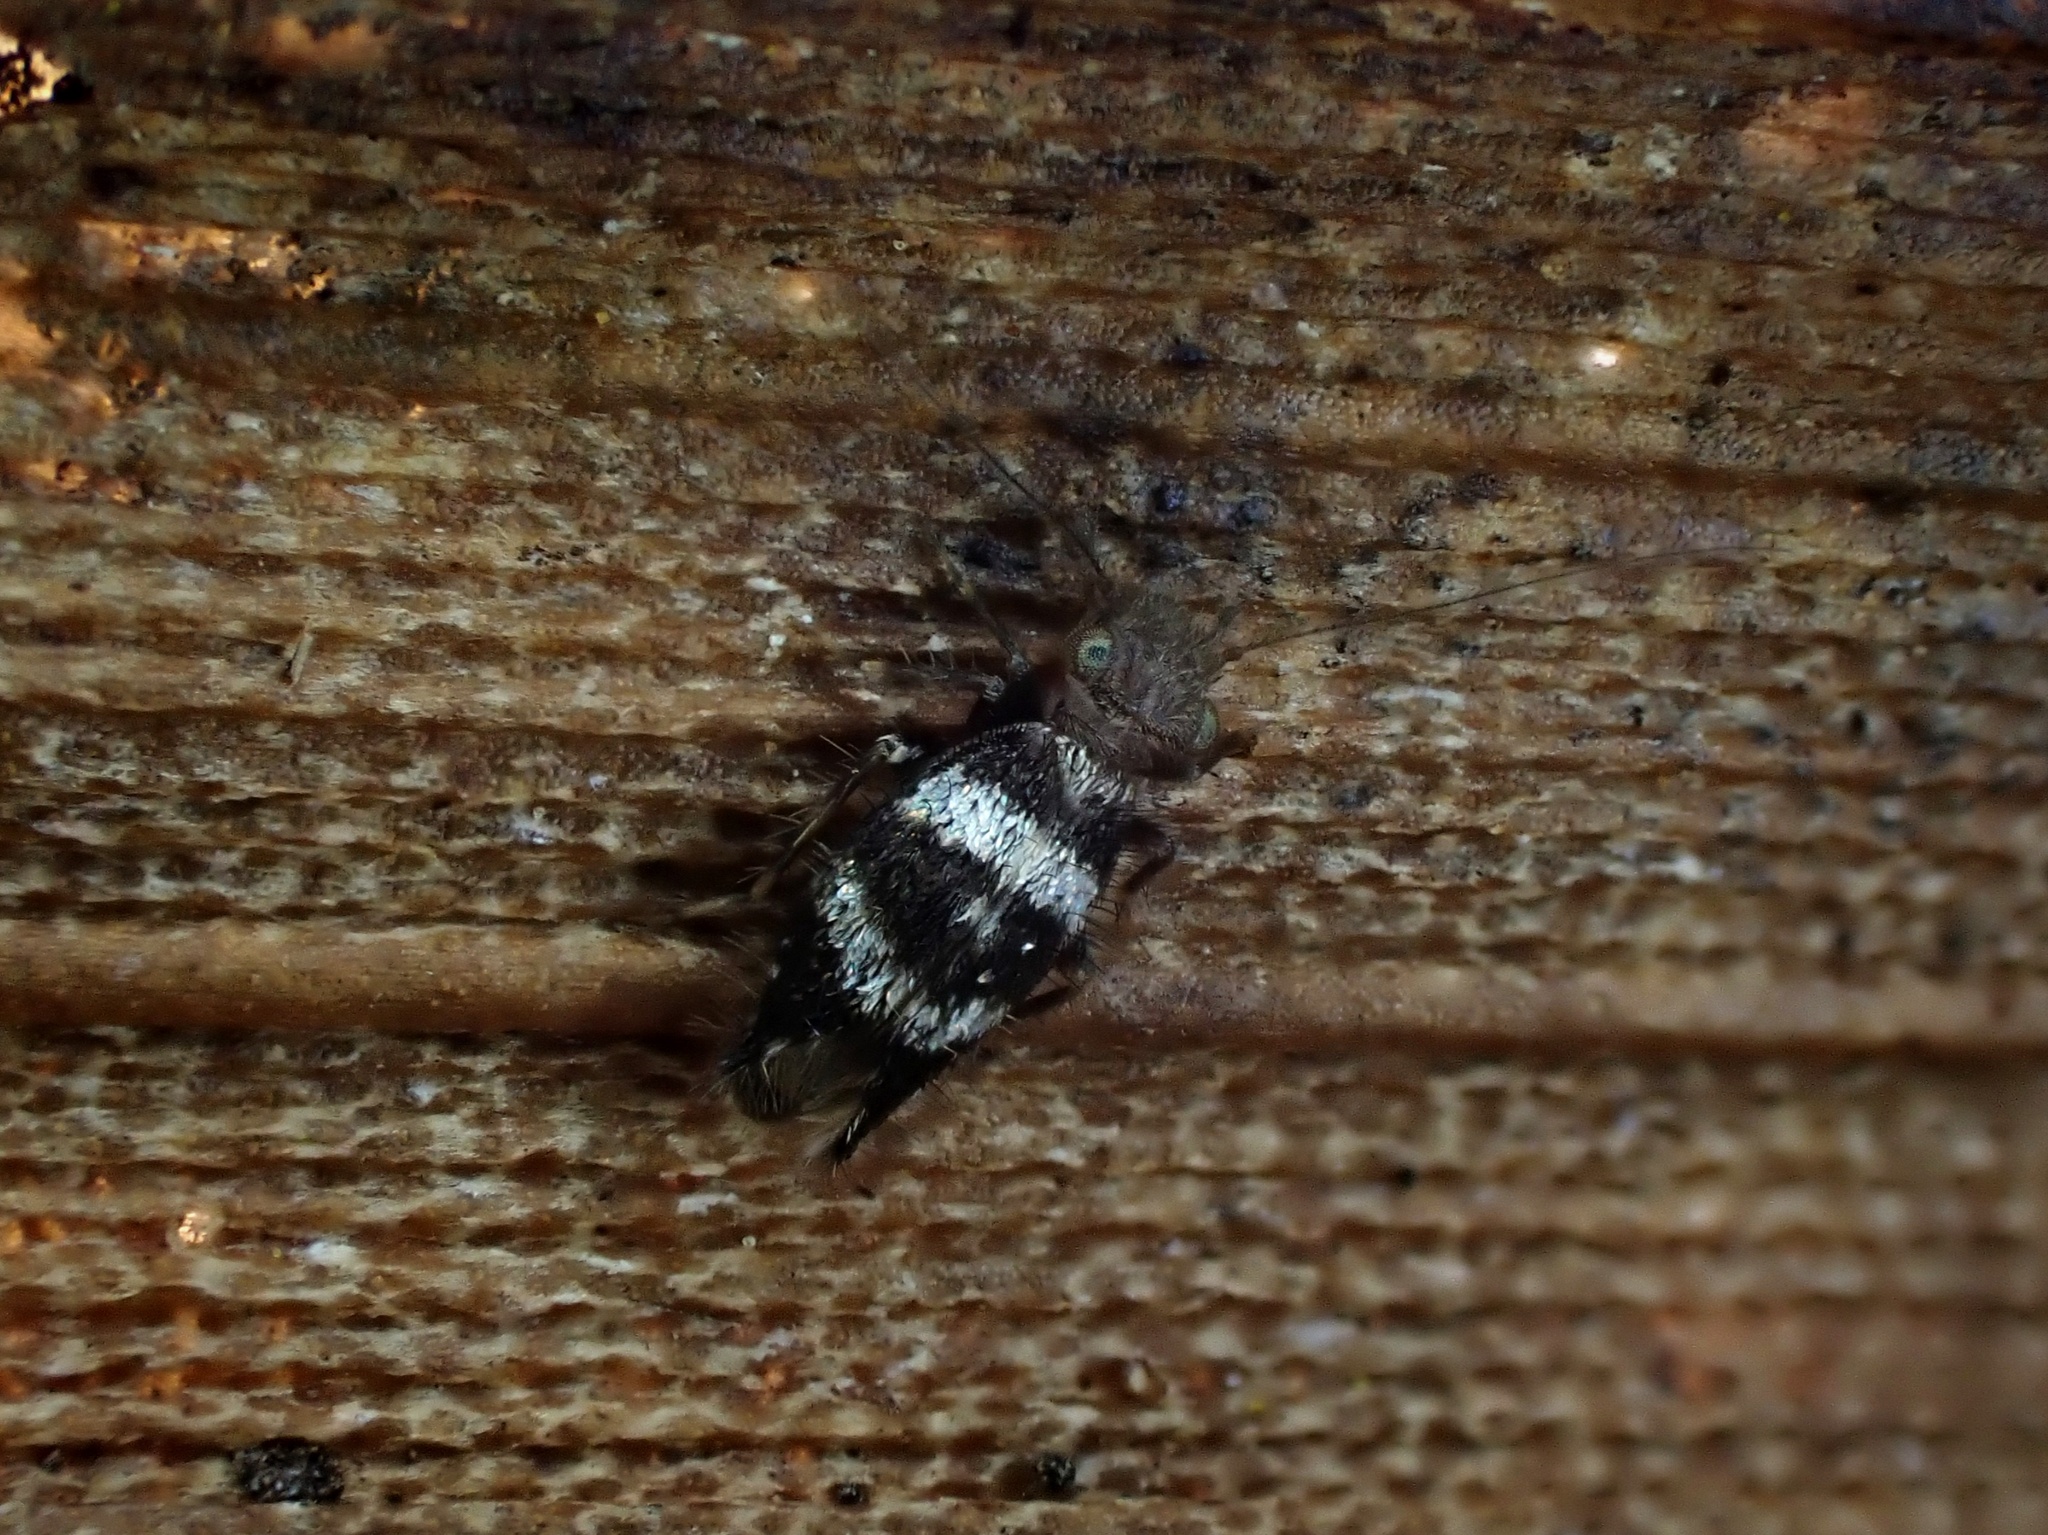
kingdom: Animalia
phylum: Arthropoda
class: Insecta
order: Psocodea
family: Lepidopsocidae
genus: Echmepteryx
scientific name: Echmepteryx stylesi
